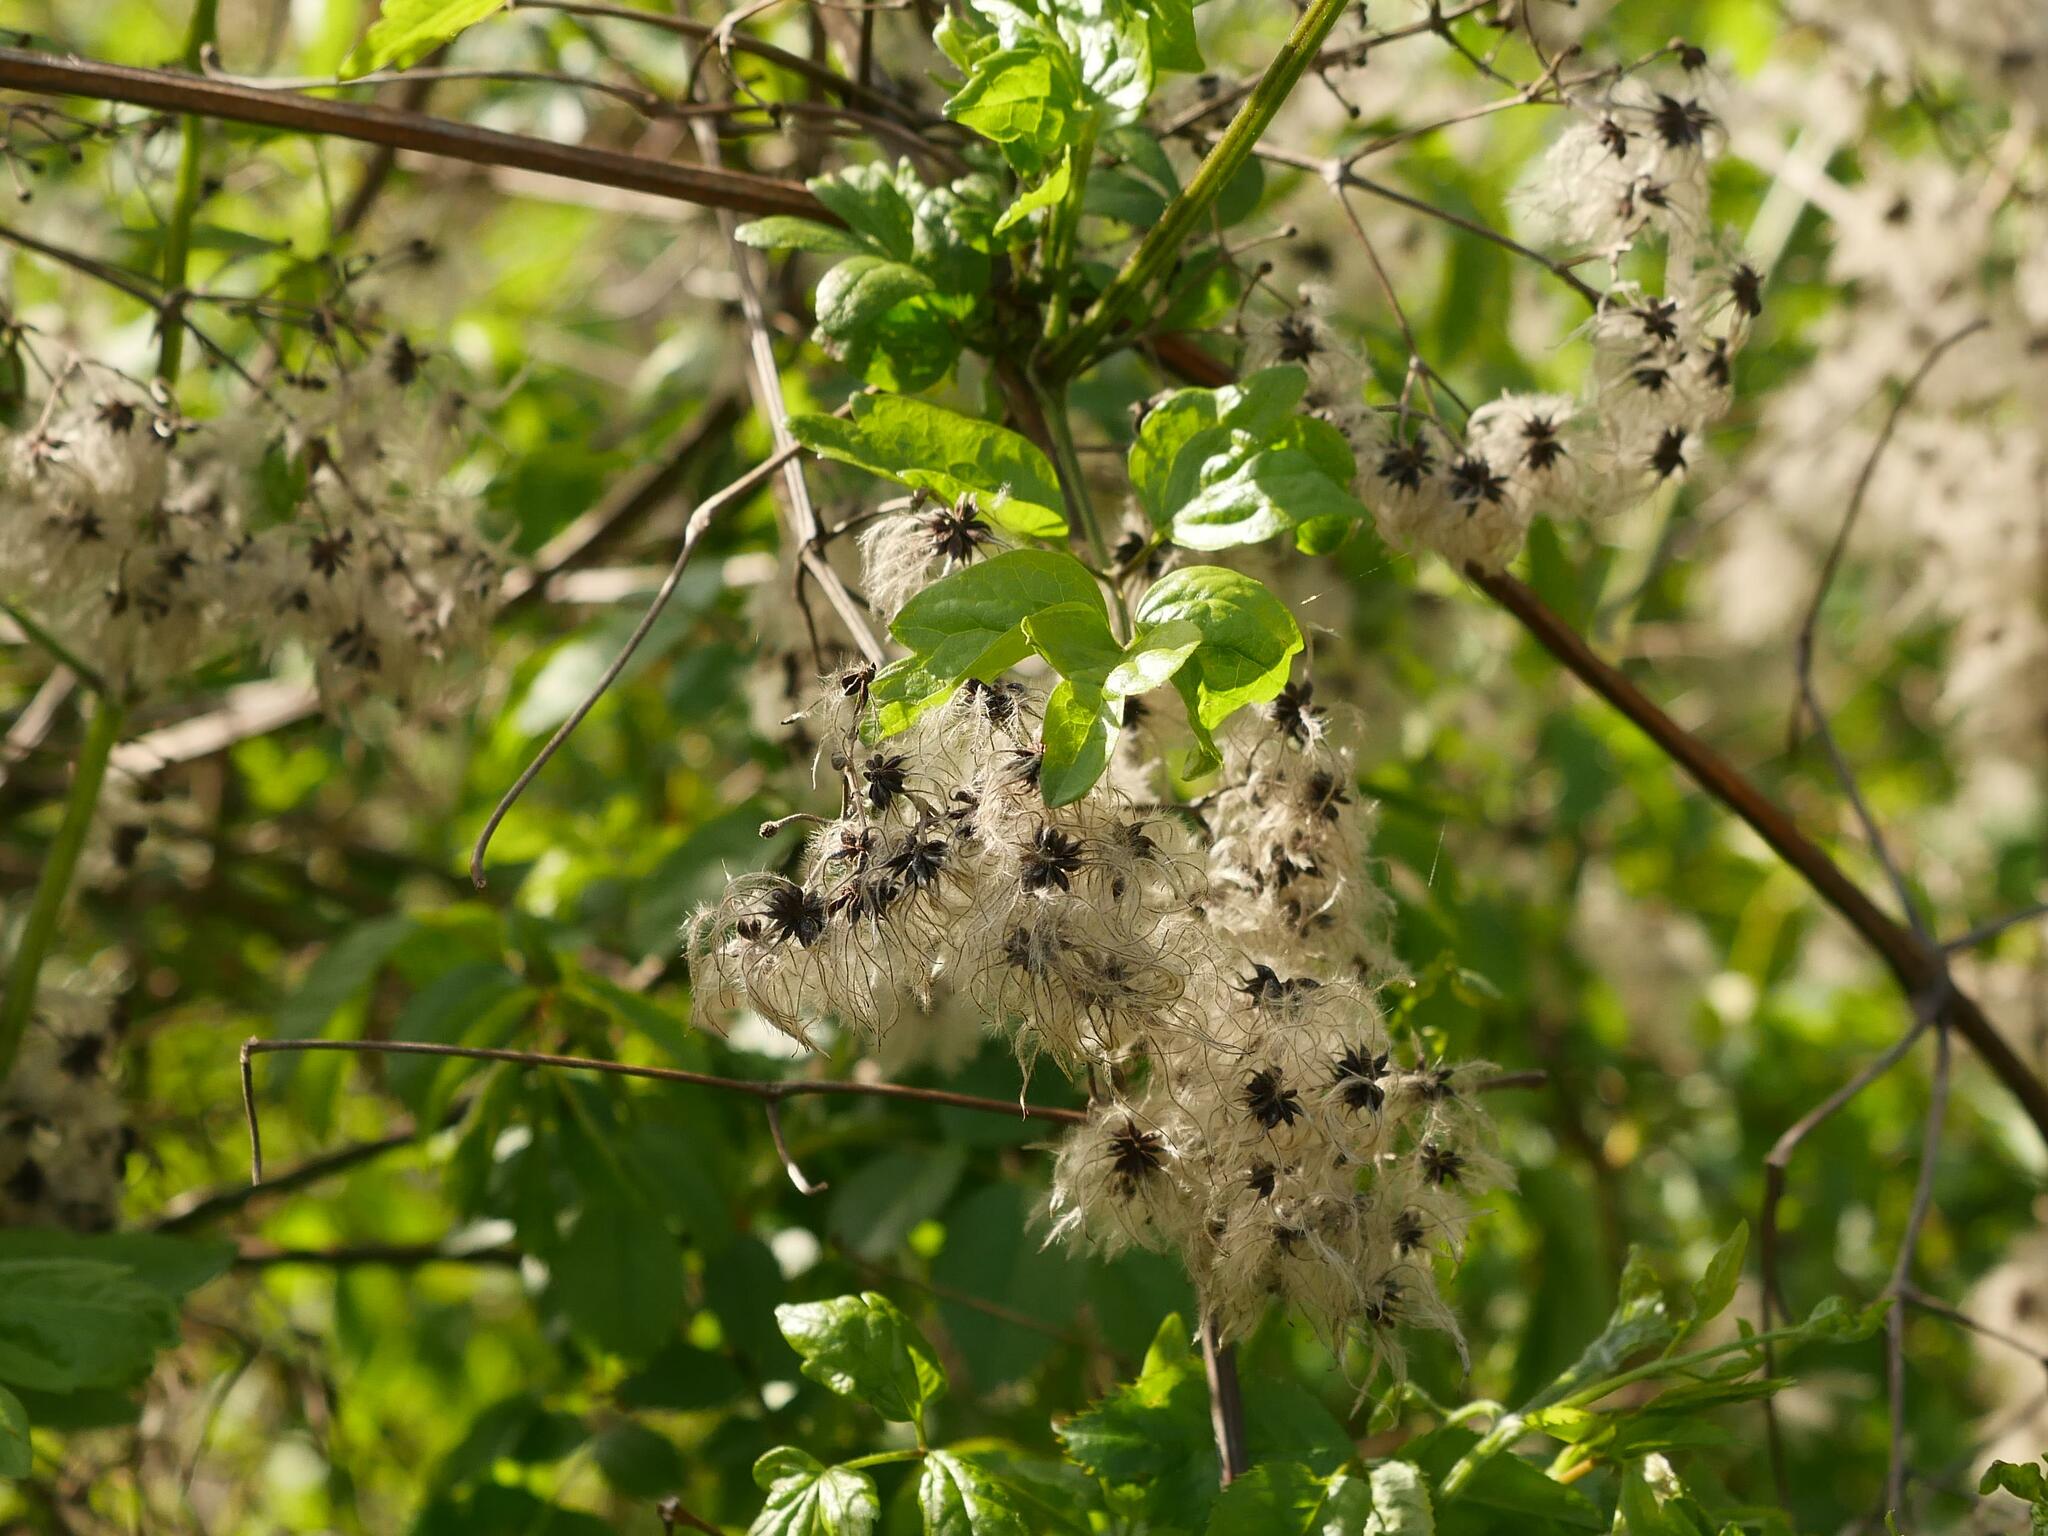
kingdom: Plantae
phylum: Tracheophyta
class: Magnoliopsida
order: Ranunculales
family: Ranunculaceae
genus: Clematis
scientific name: Clematis vitalba
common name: Evergreen clematis
